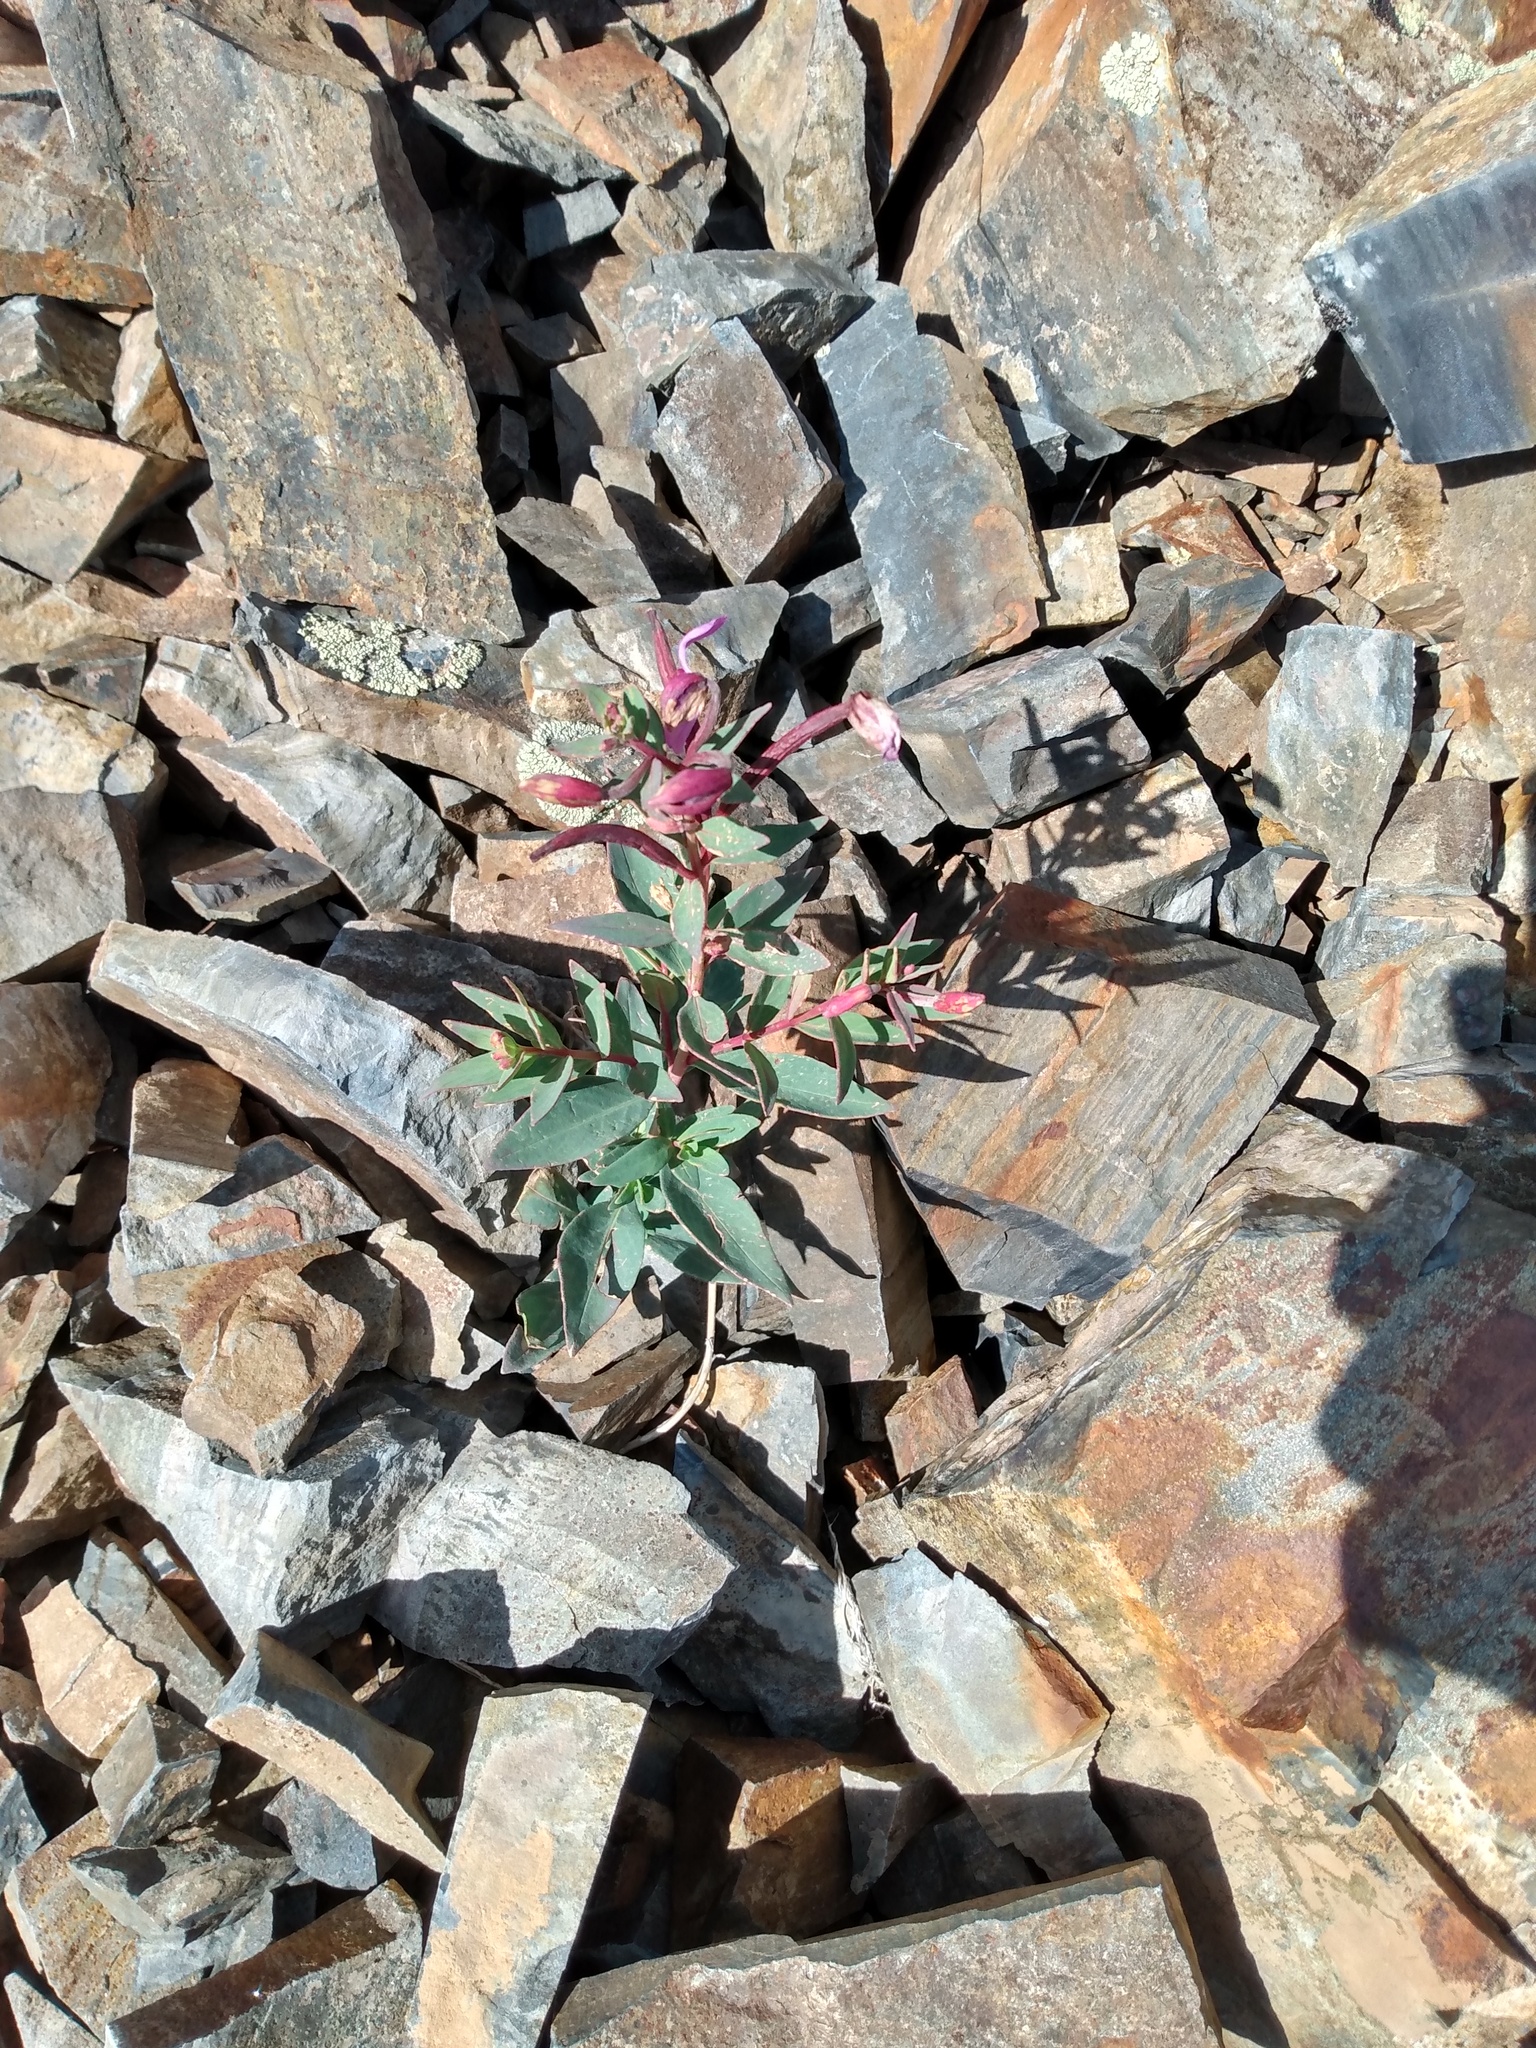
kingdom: Plantae
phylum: Tracheophyta
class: Magnoliopsida
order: Myrtales
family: Onagraceae
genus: Chamaenerion
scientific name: Chamaenerion latifolium
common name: Dwarf fireweed
